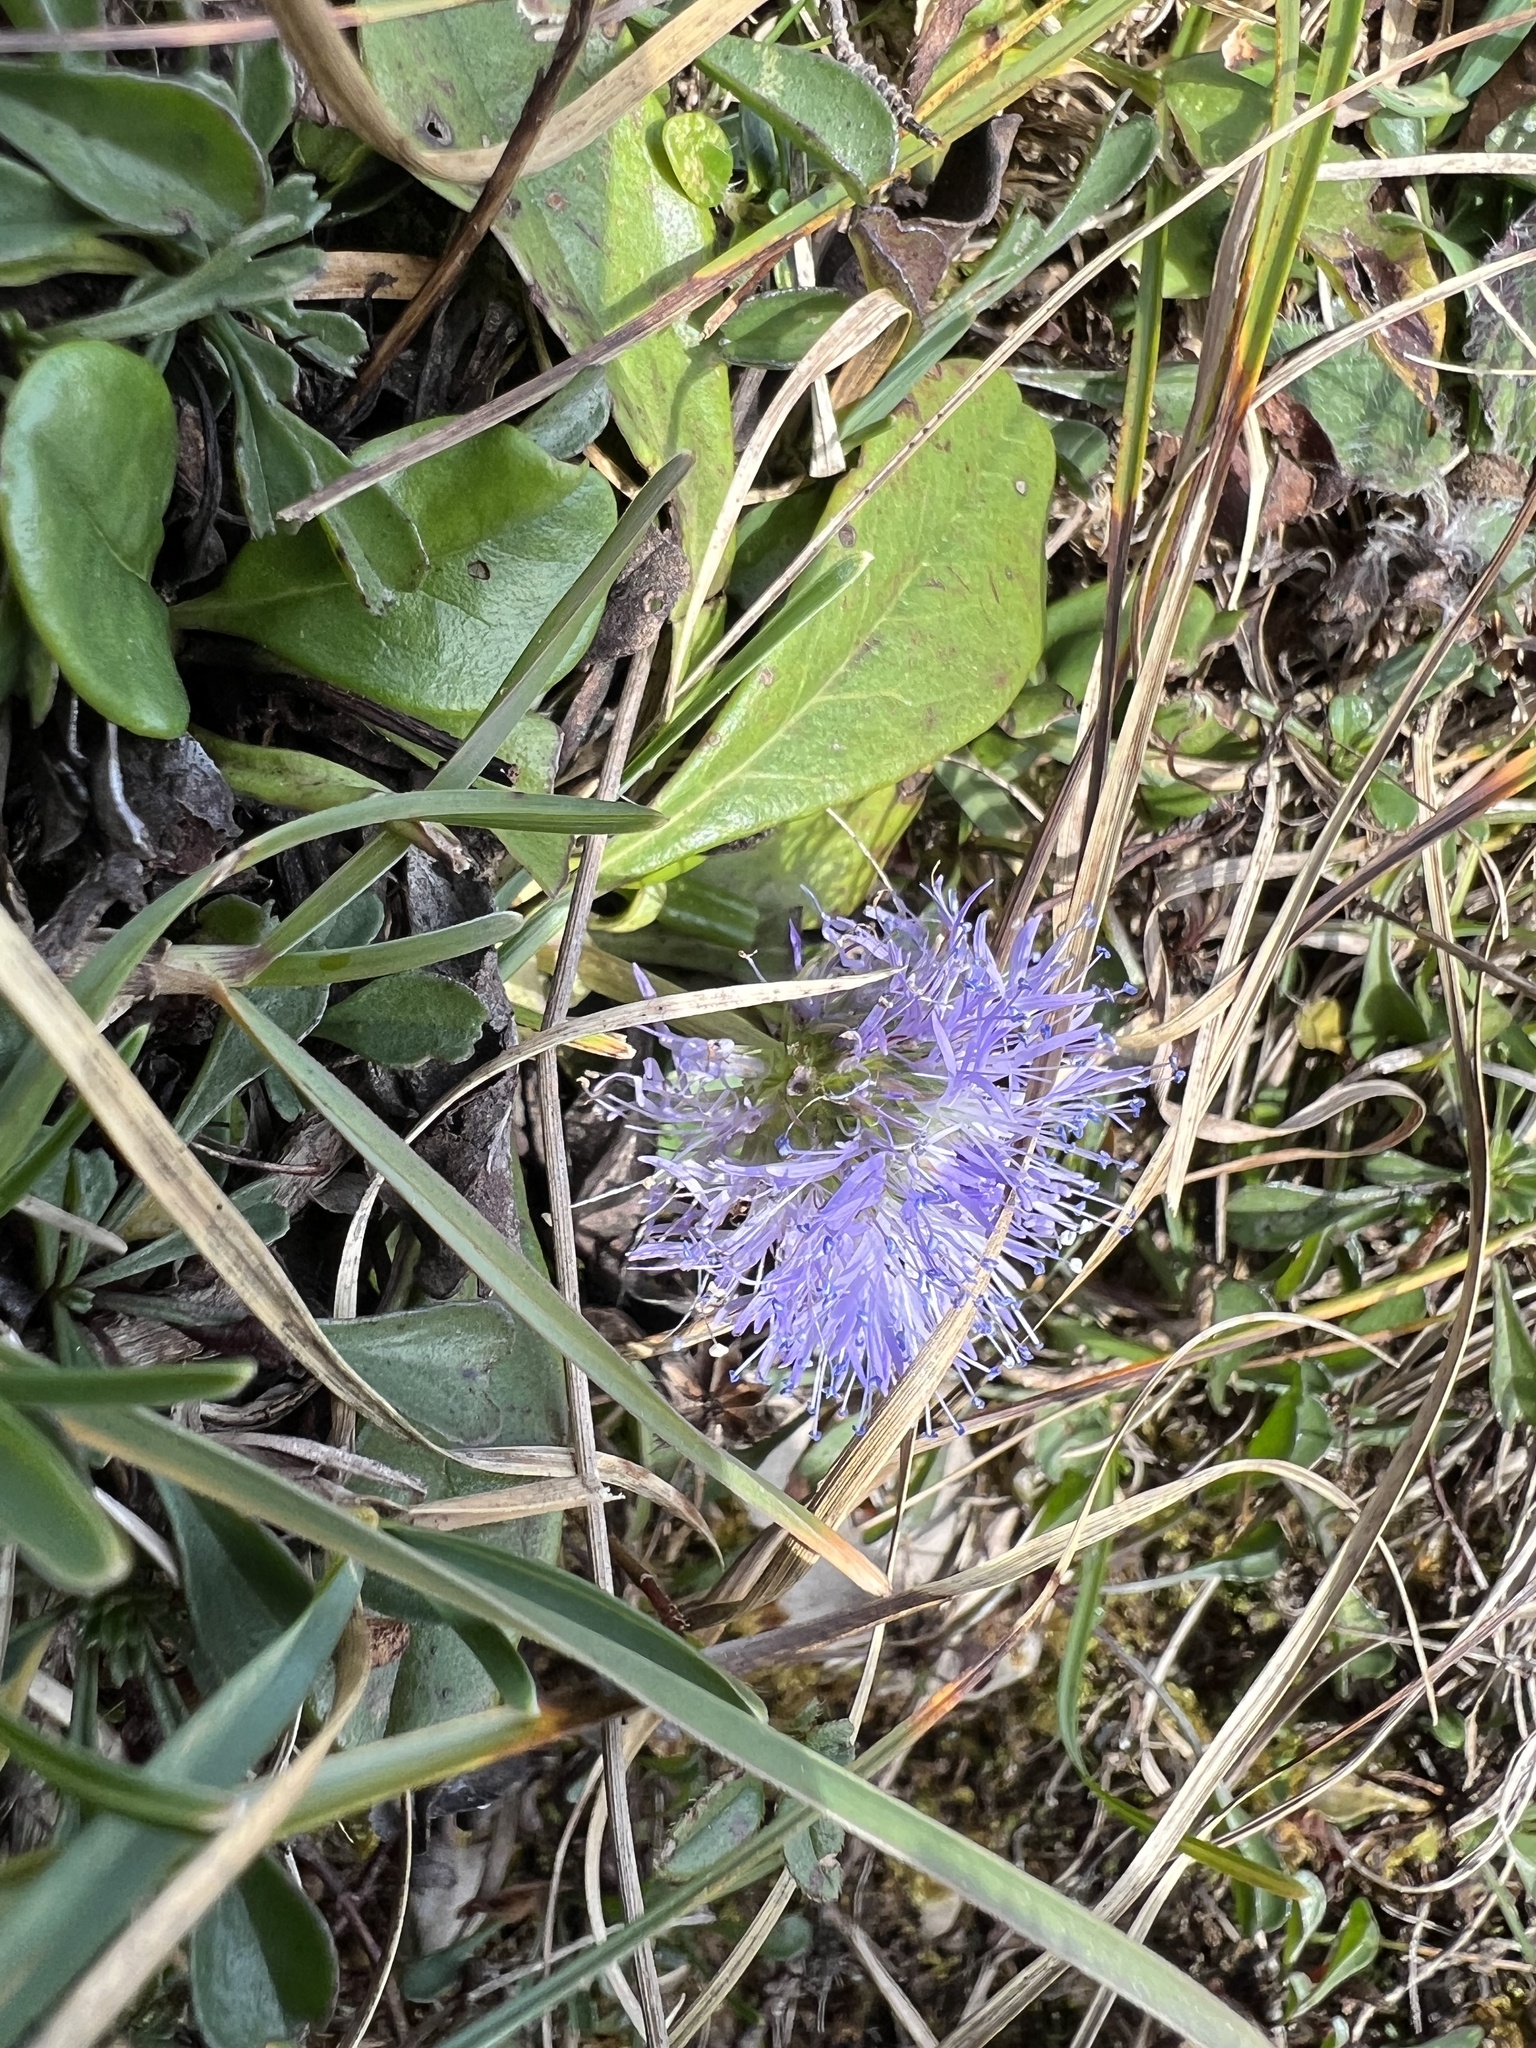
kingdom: Plantae
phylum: Tracheophyta
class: Magnoliopsida
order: Lamiales
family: Plantaginaceae
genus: Globularia
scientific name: Globularia cordifolia
